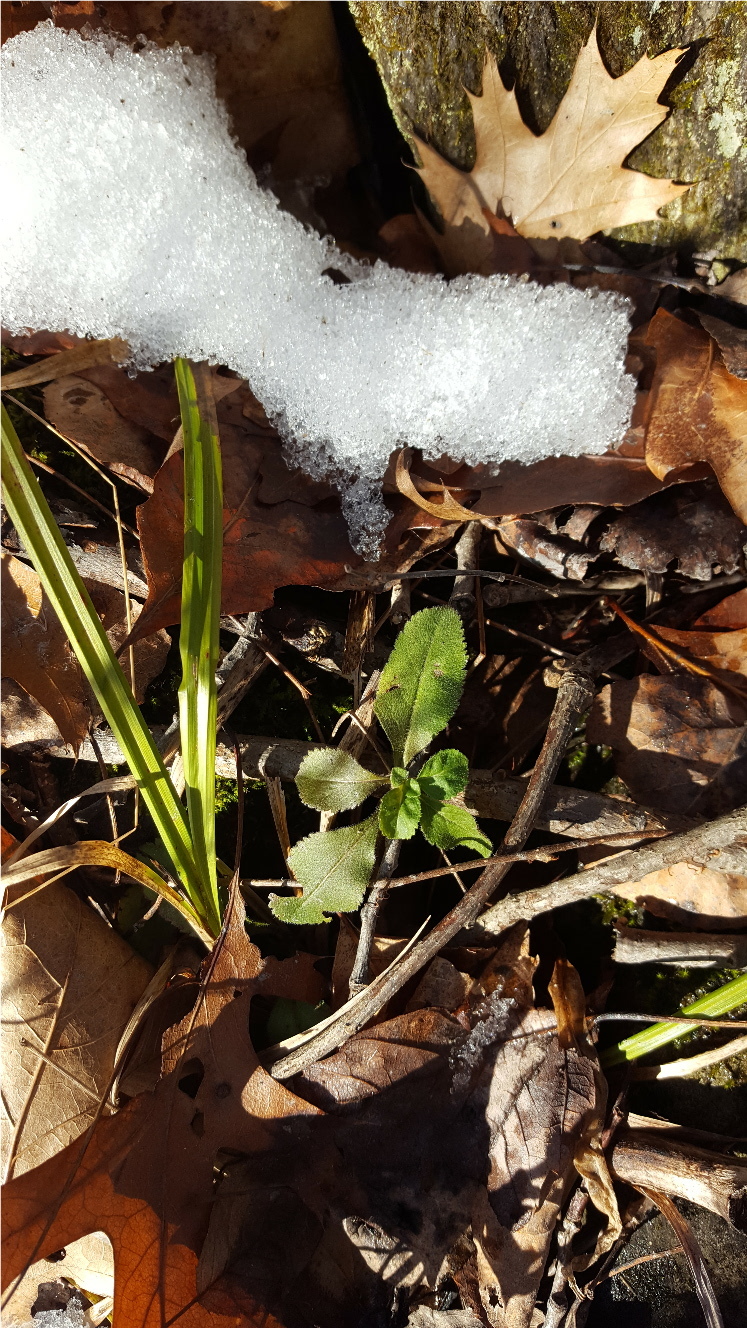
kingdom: Plantae
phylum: Tracheophyta
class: Magnoliopsida
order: Lamiales
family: Plantaginaceae
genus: Veronica
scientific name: Veronica officinalis
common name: Common speedwell
